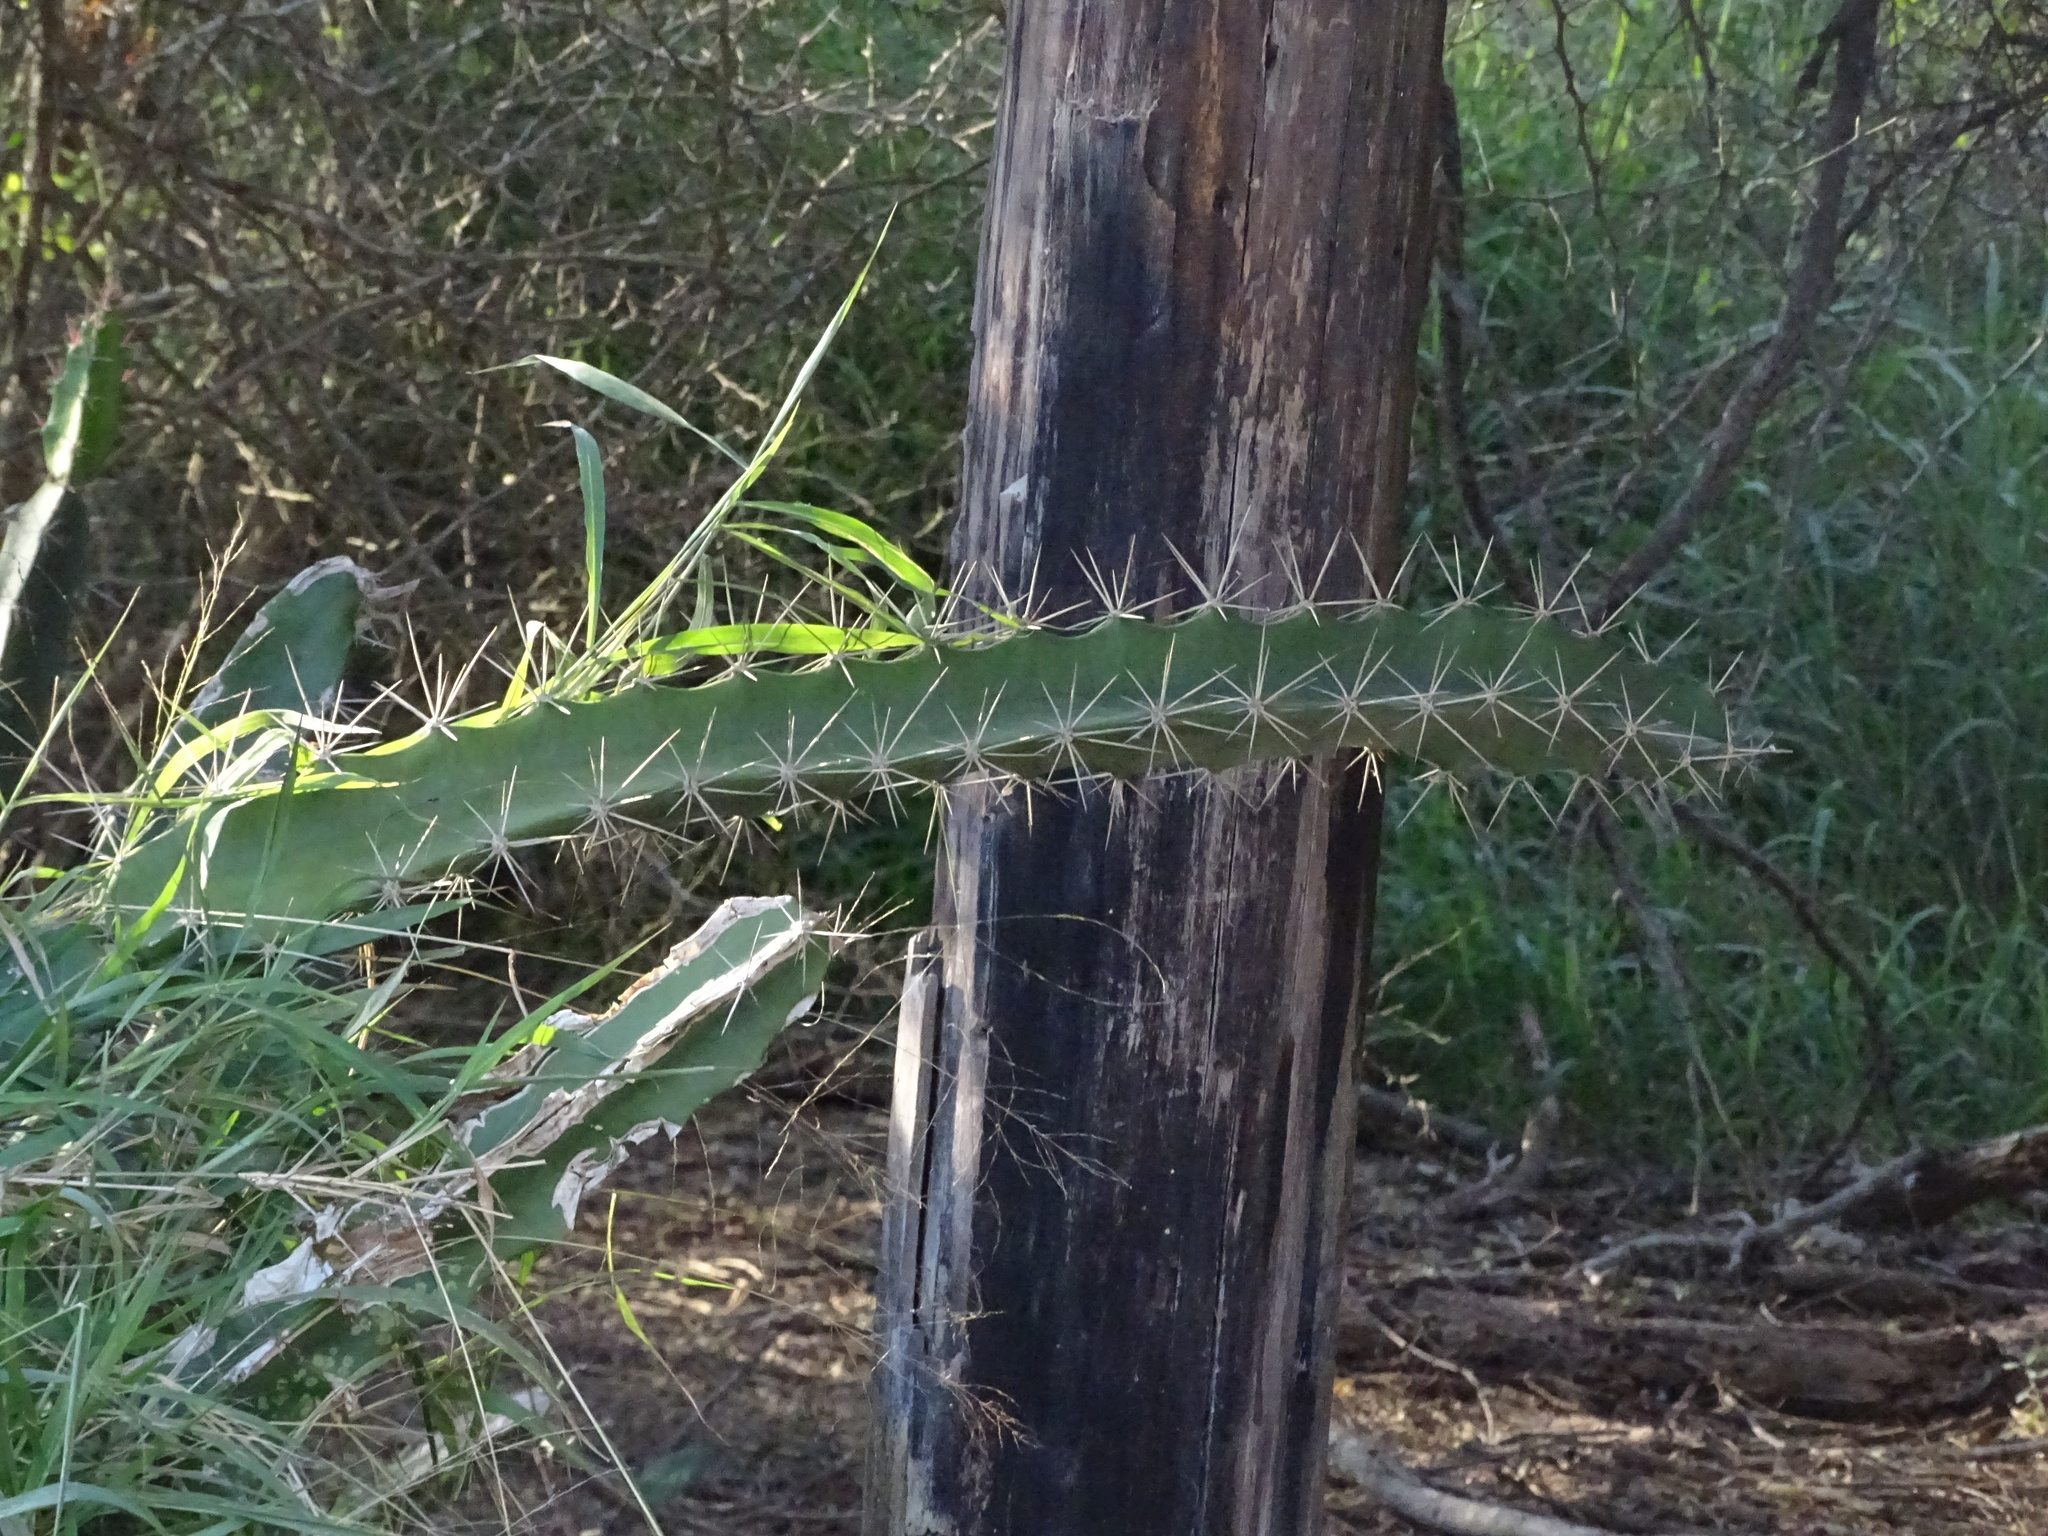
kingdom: Plantae
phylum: Tracheophyta
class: Magnoliopsida
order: Caryophyllales
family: Cactaceae
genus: Acanthocereus
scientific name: Acanthocereus tetragonus
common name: Triangle cactus
